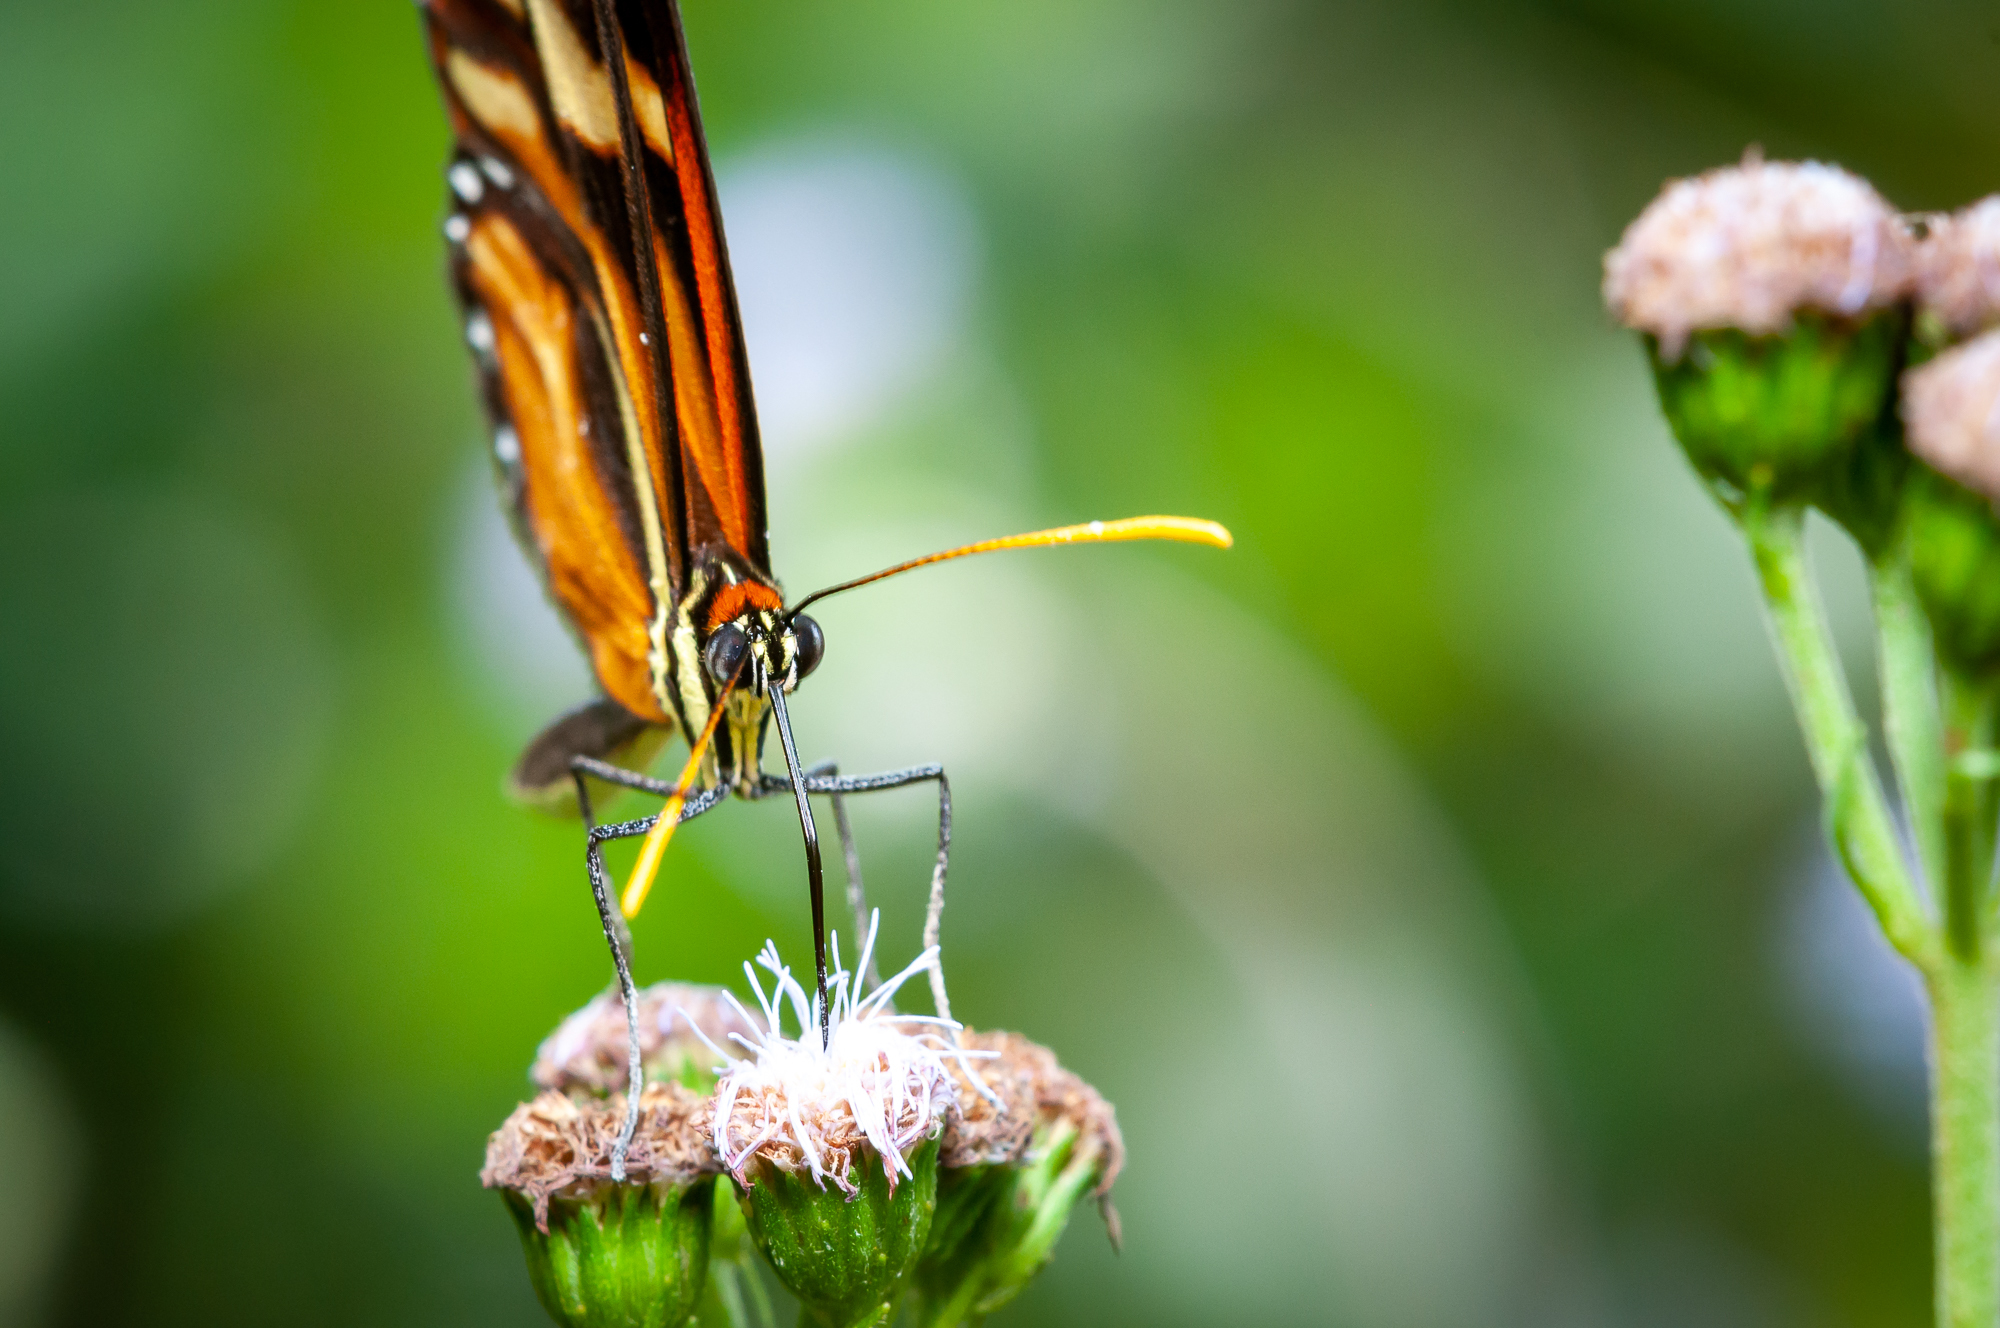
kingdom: Animalia
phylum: Arthropoda
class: Insecta
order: Lepidoptera
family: Nymphalidae
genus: Ithomia
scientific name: Ithomia heraldica
